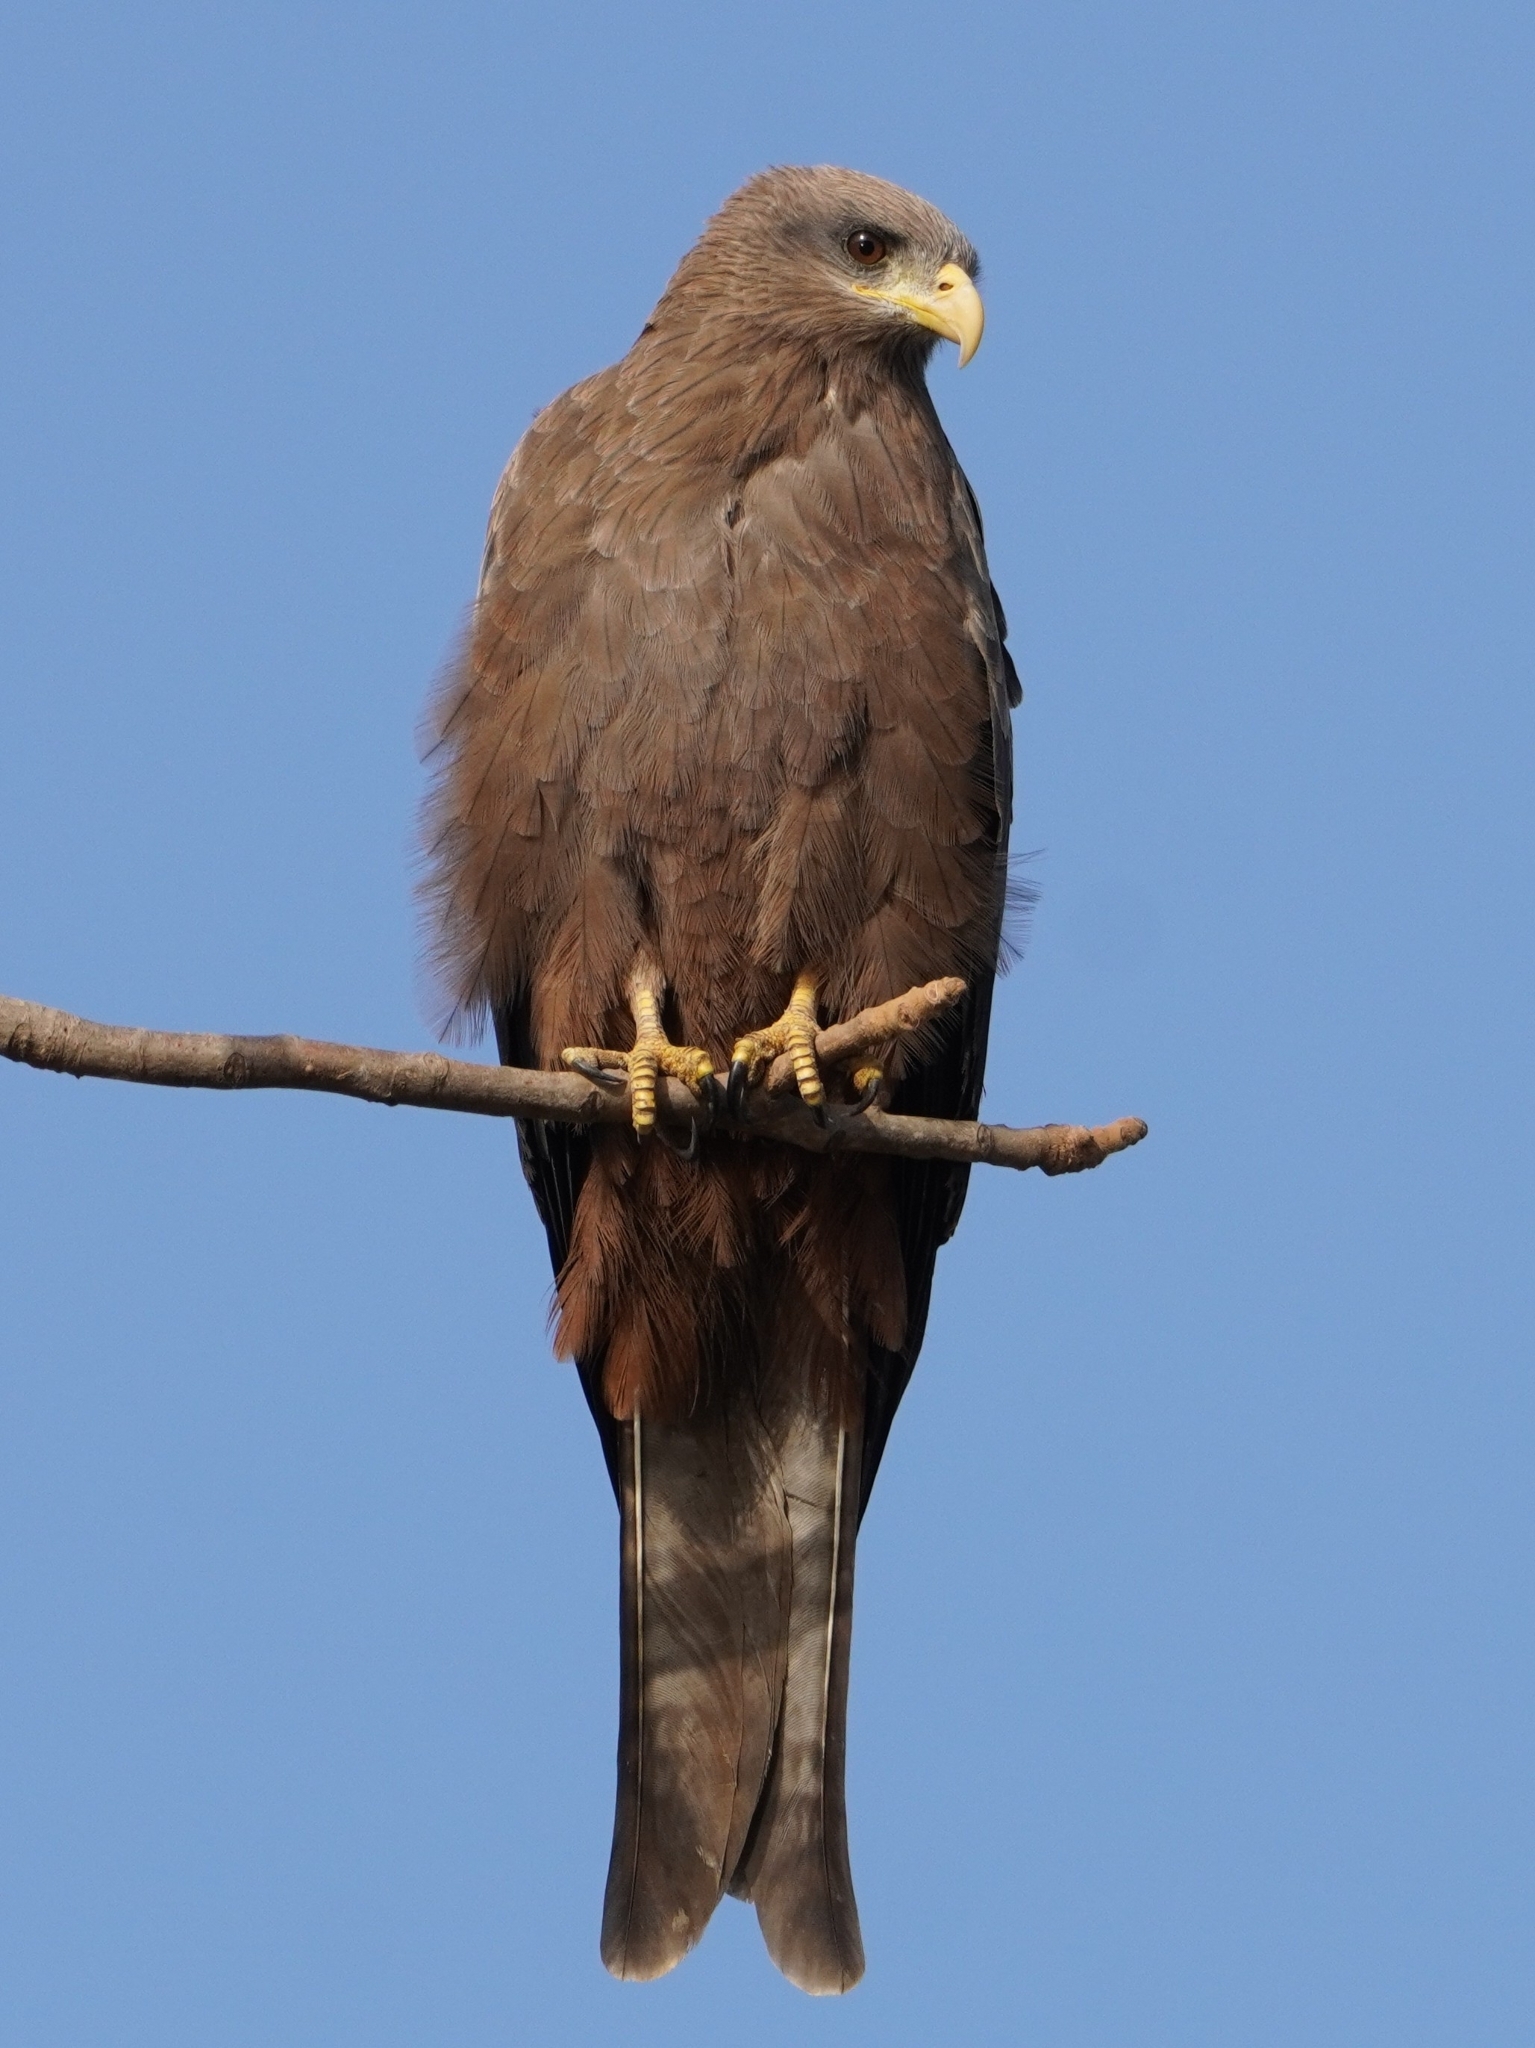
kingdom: Animalia
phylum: Chordata
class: Aves
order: Accipitriformes
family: Accipitridae
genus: Milvus
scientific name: Milvus migrans
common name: Black kite
